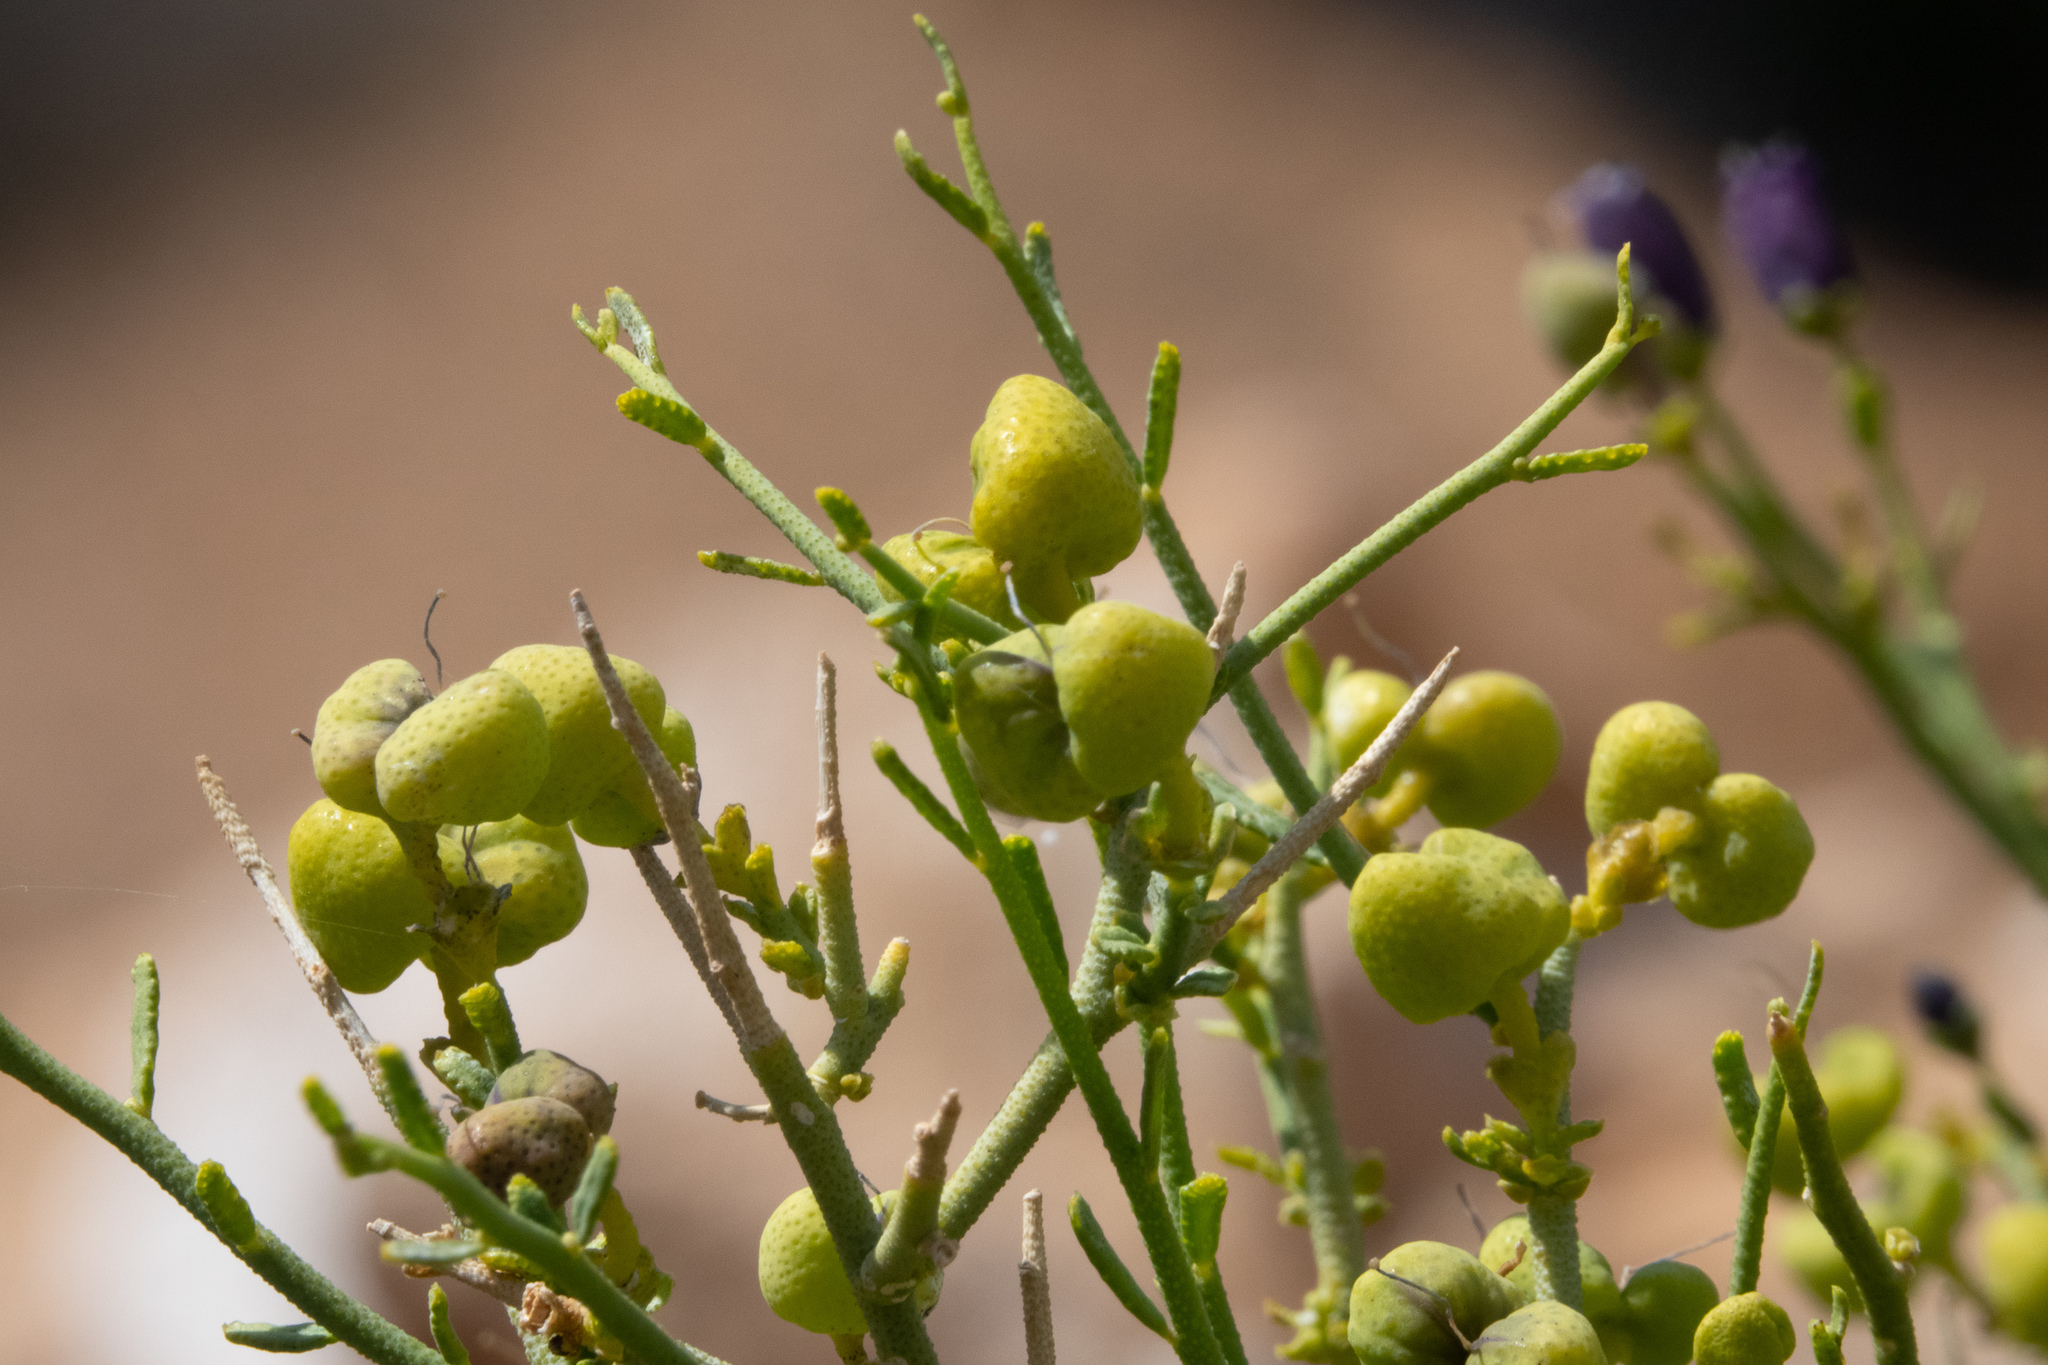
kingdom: Plantae
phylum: Tracheophyta
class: Magnoliopsida
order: Sapindales
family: Rutaceae
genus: Thamnosma
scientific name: Thamnosma montana
